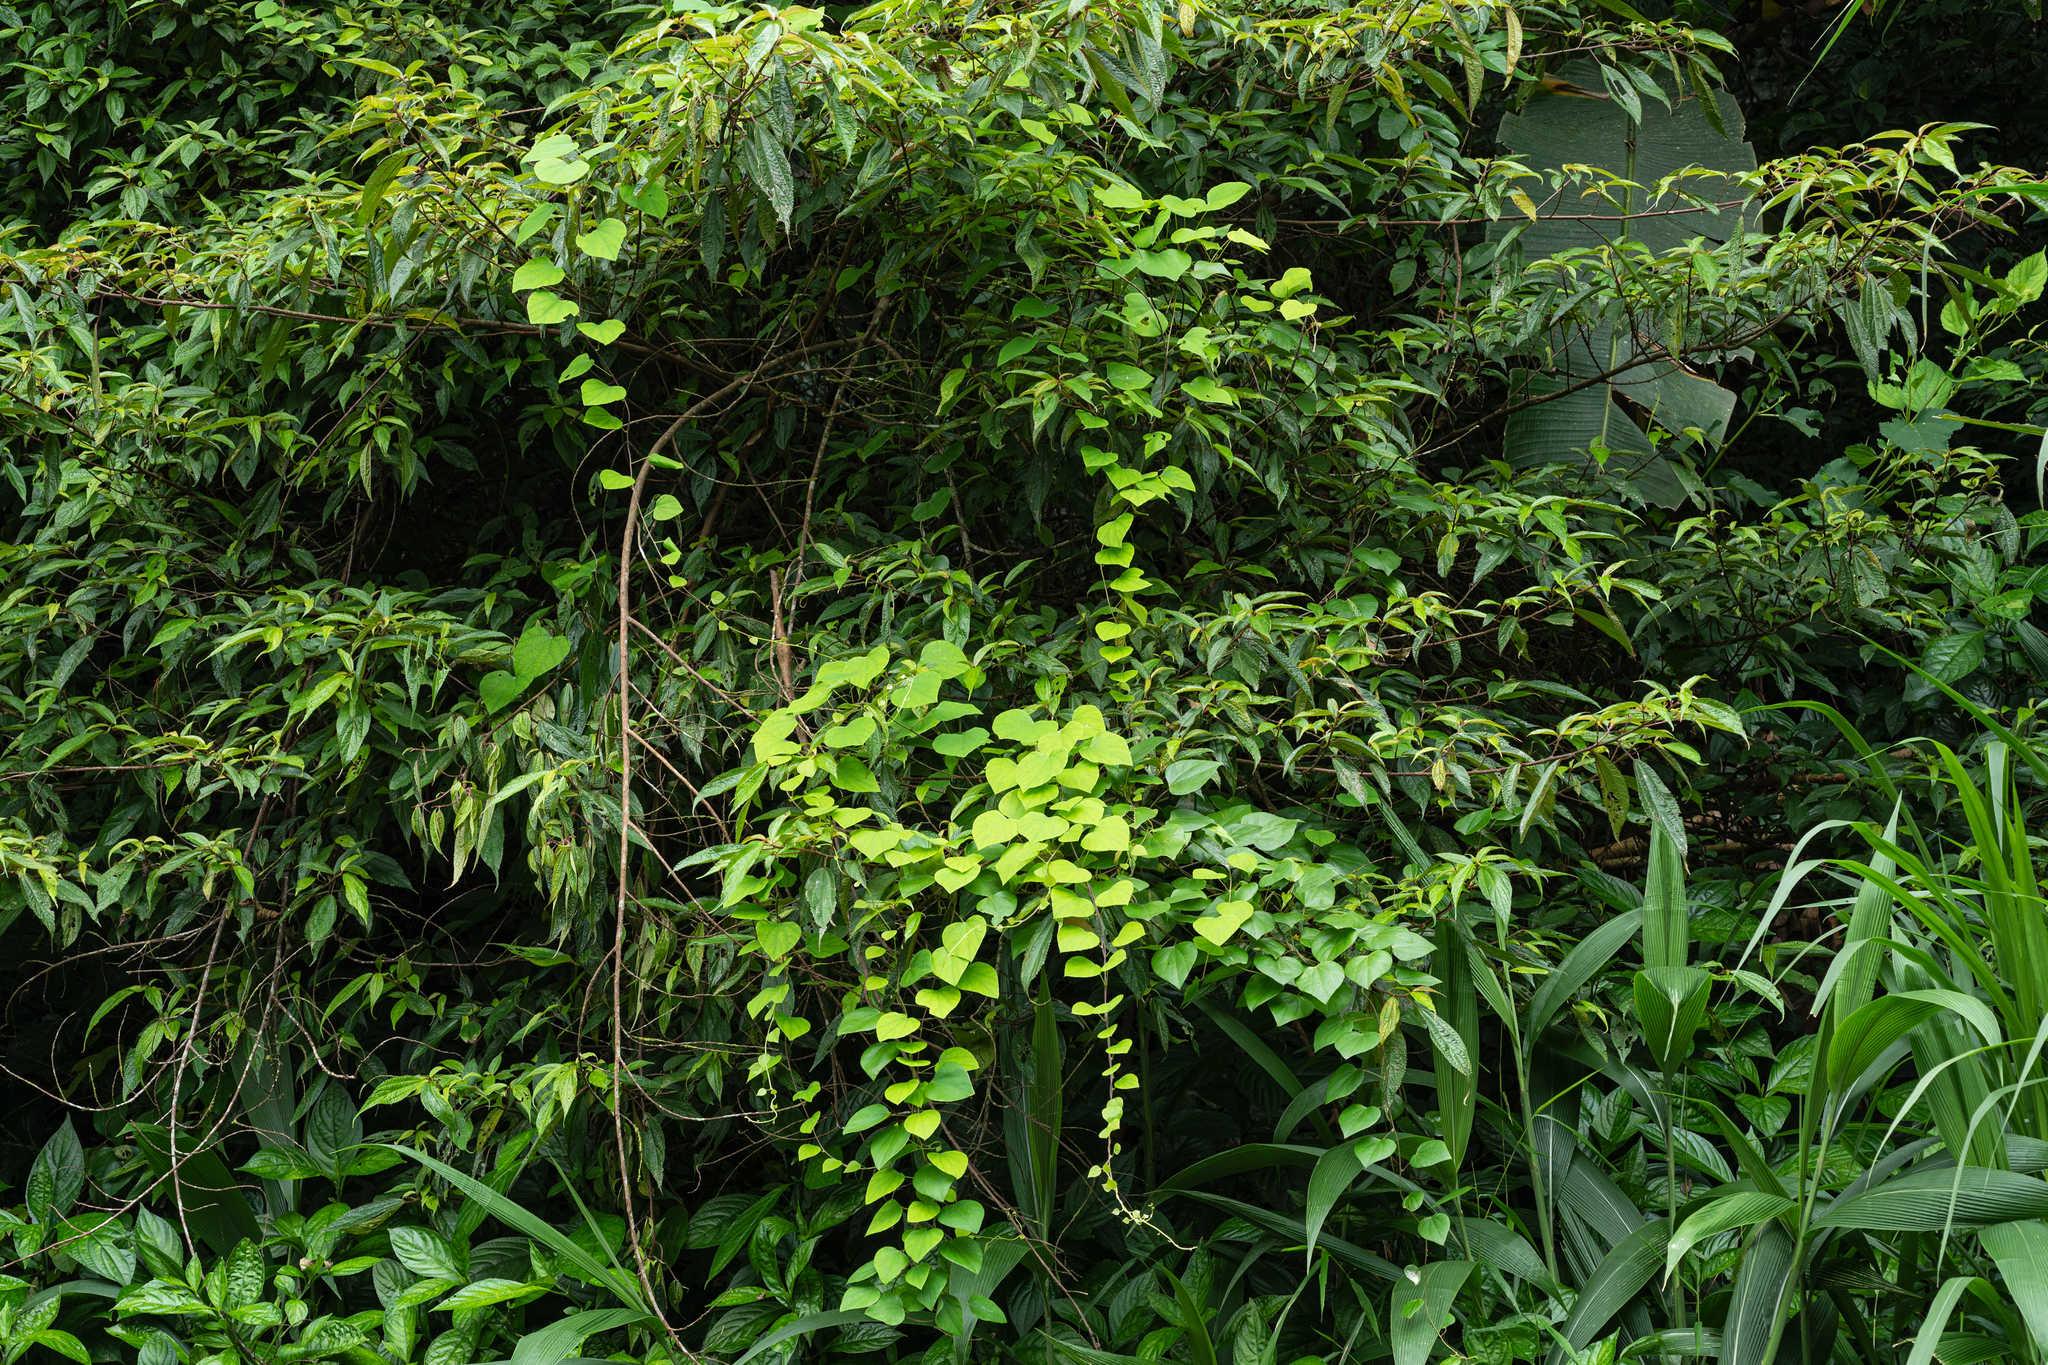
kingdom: Plantae
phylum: Tracheophyta
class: Magnoliopsida
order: Ranunculales
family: Menispermaceae
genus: Pericampylus
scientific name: Pericampylus glaucus
